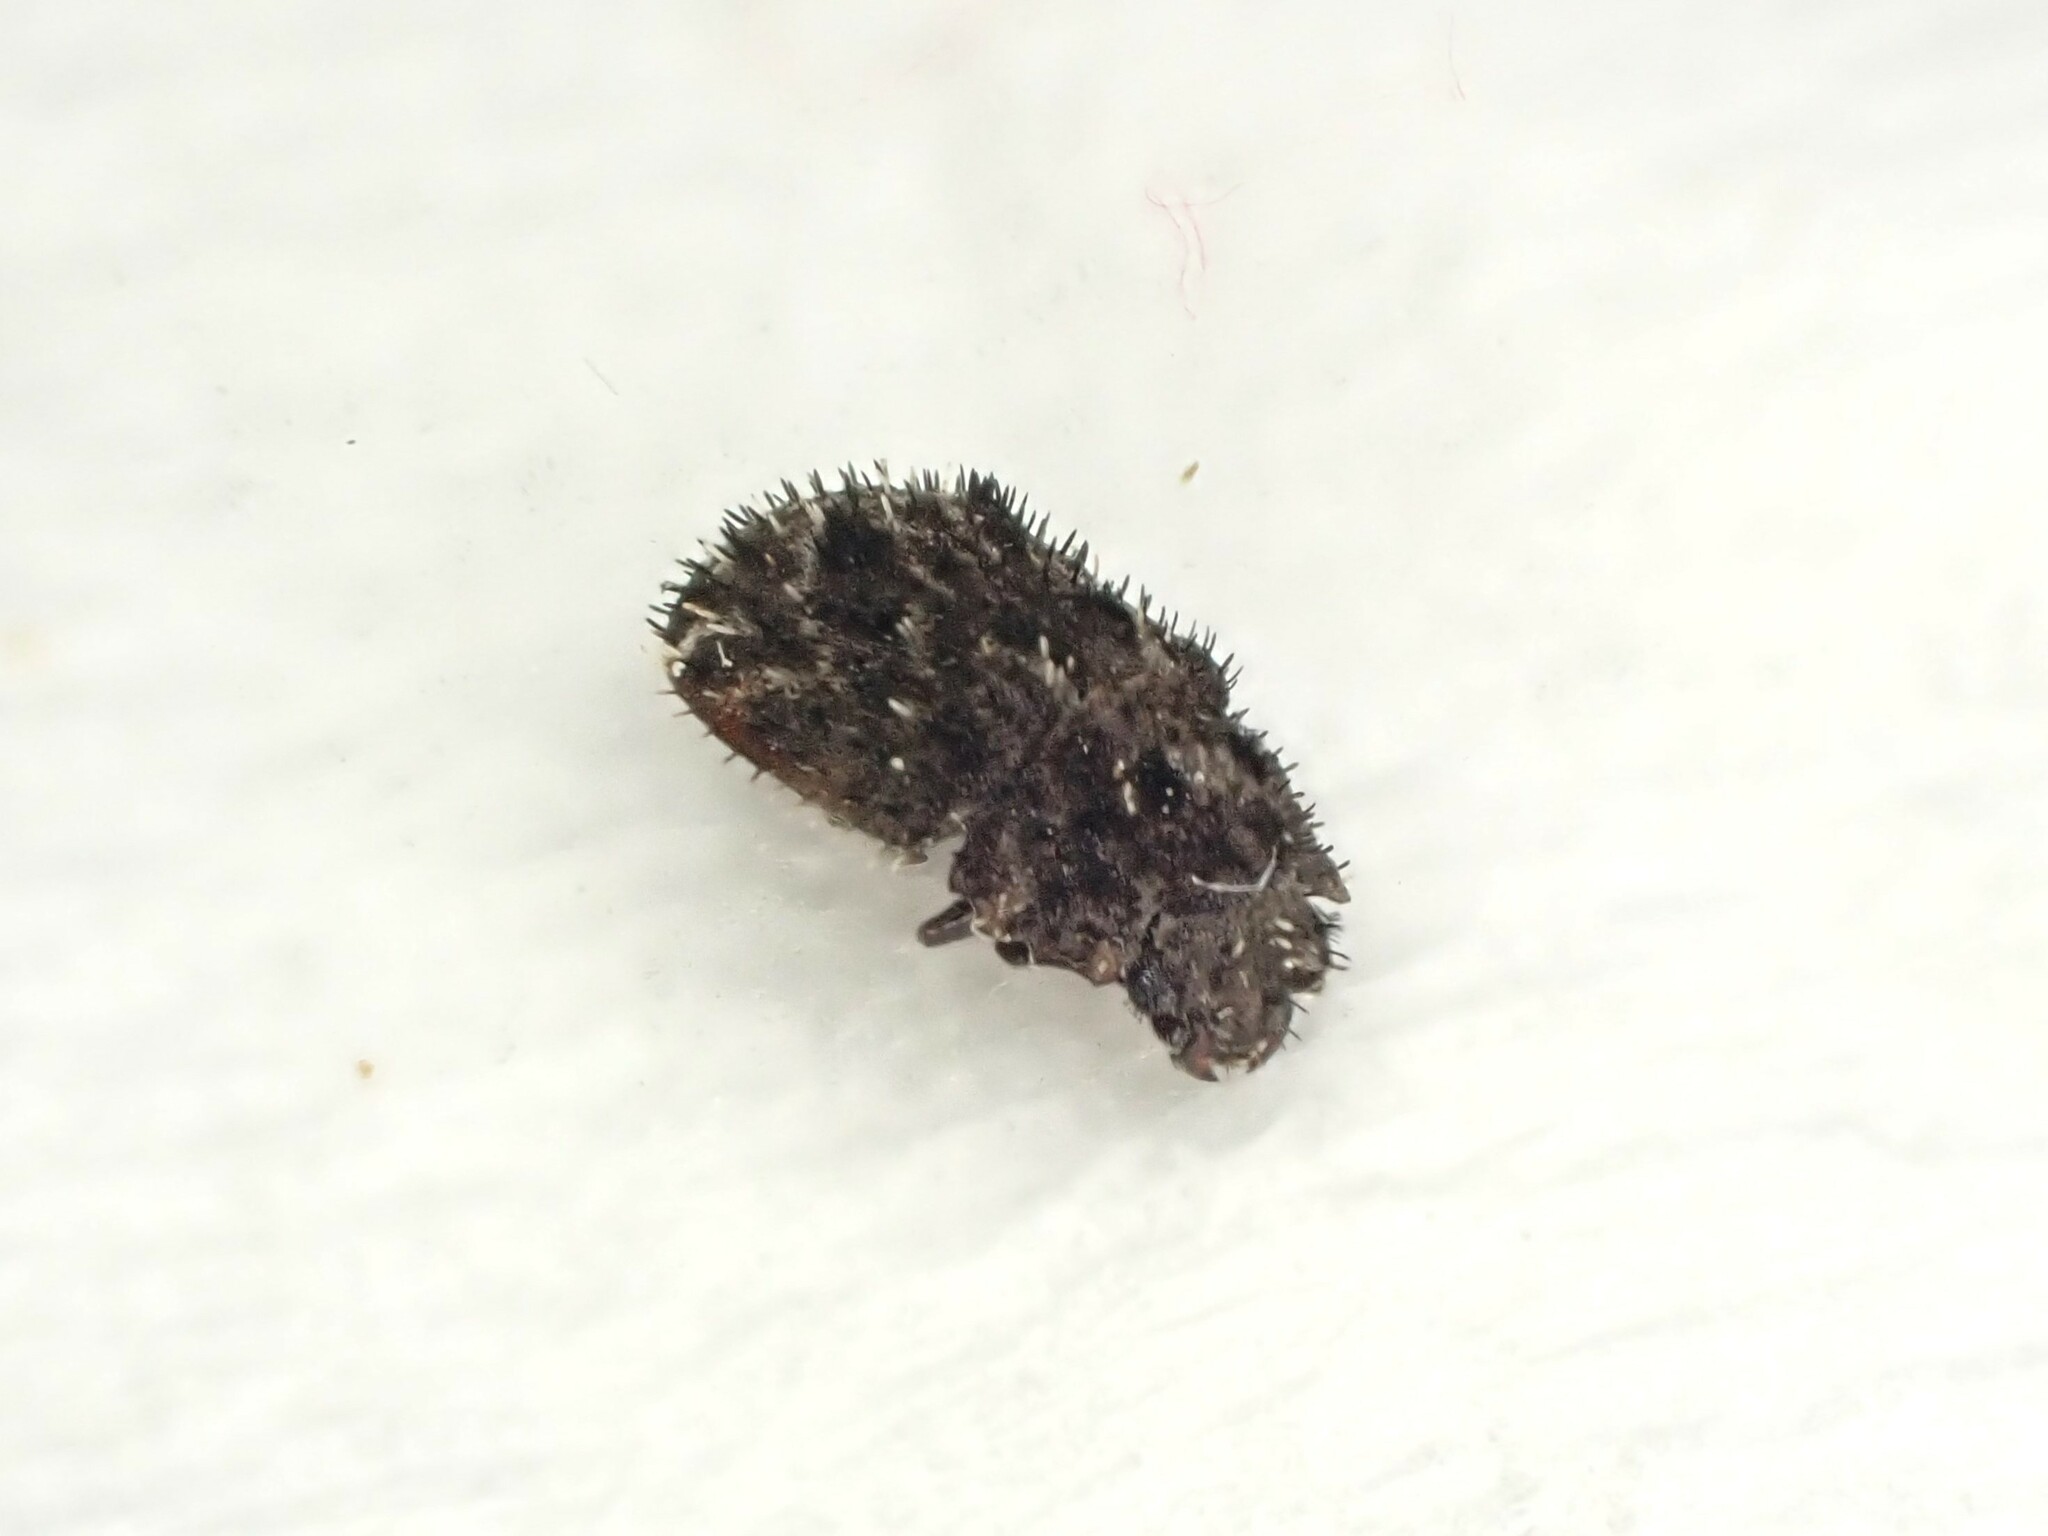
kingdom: Animalia
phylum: Arthropoda
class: Insecta
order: Coleoptera
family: Nitidulidae
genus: Hisparonia
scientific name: Hisparonia
